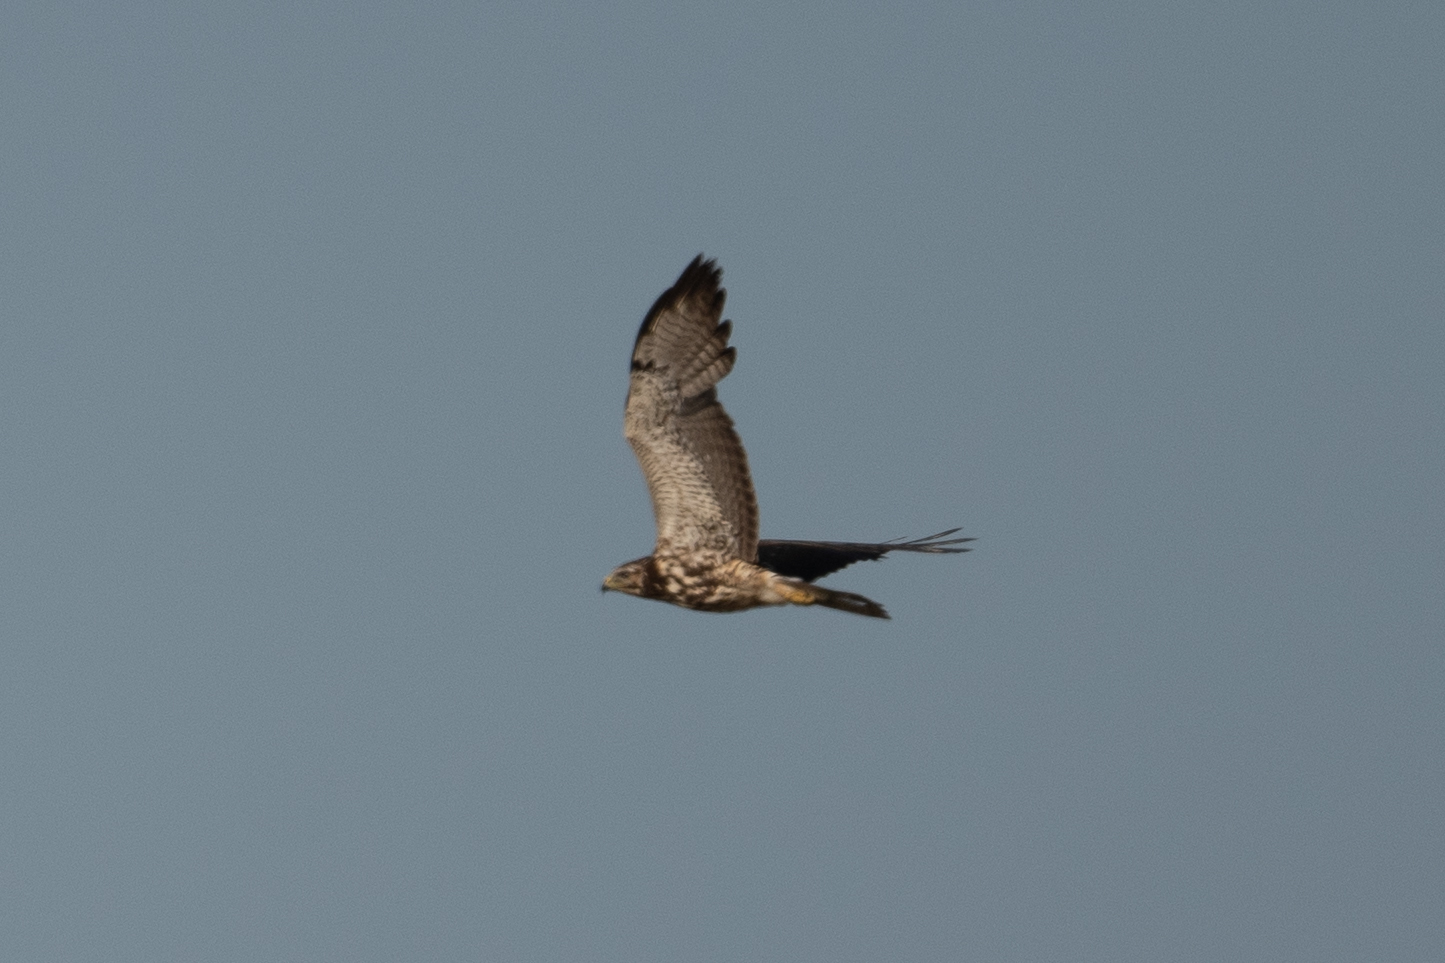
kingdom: Animalia
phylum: Chordata
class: Aves
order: Accipitriformes
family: Accipitridae
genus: Buteo
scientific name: Buteo swainsoni
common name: Swainson's hawk
